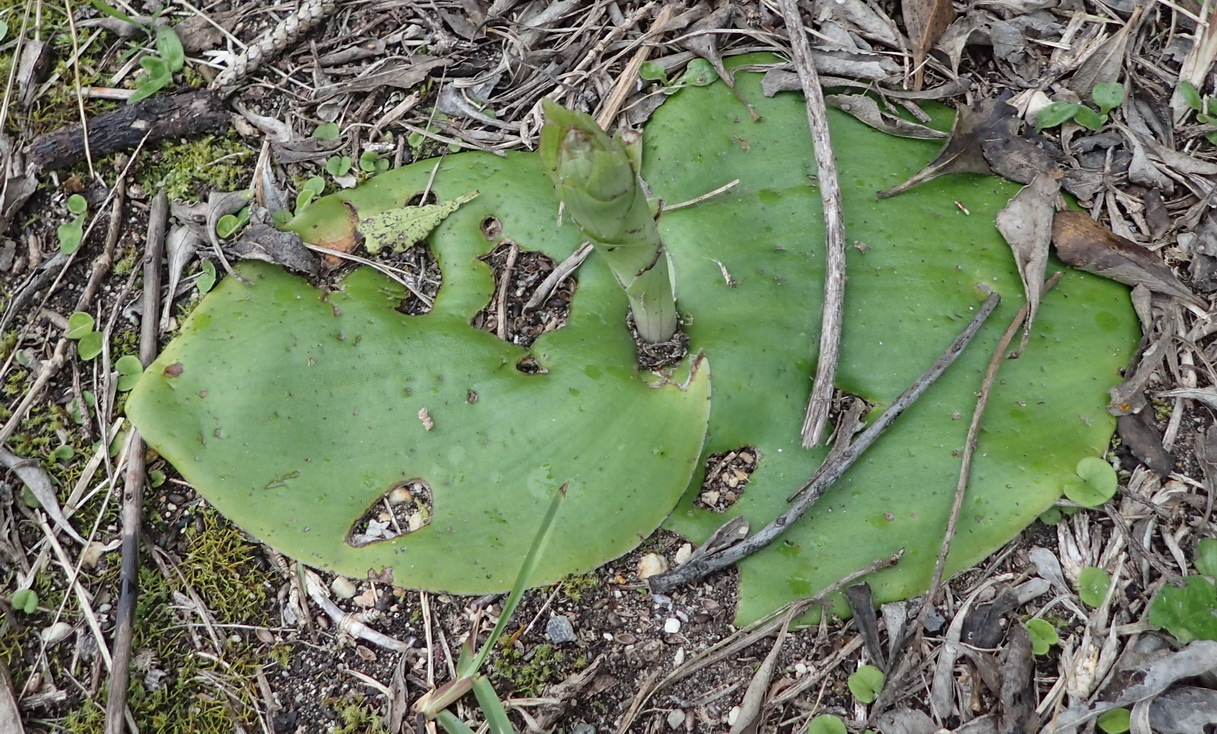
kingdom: Plantae
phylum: Tracheophyta
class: Liliopsida
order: Asparagales
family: Orchidaceae
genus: Satyrium
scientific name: Satyrium princeps
